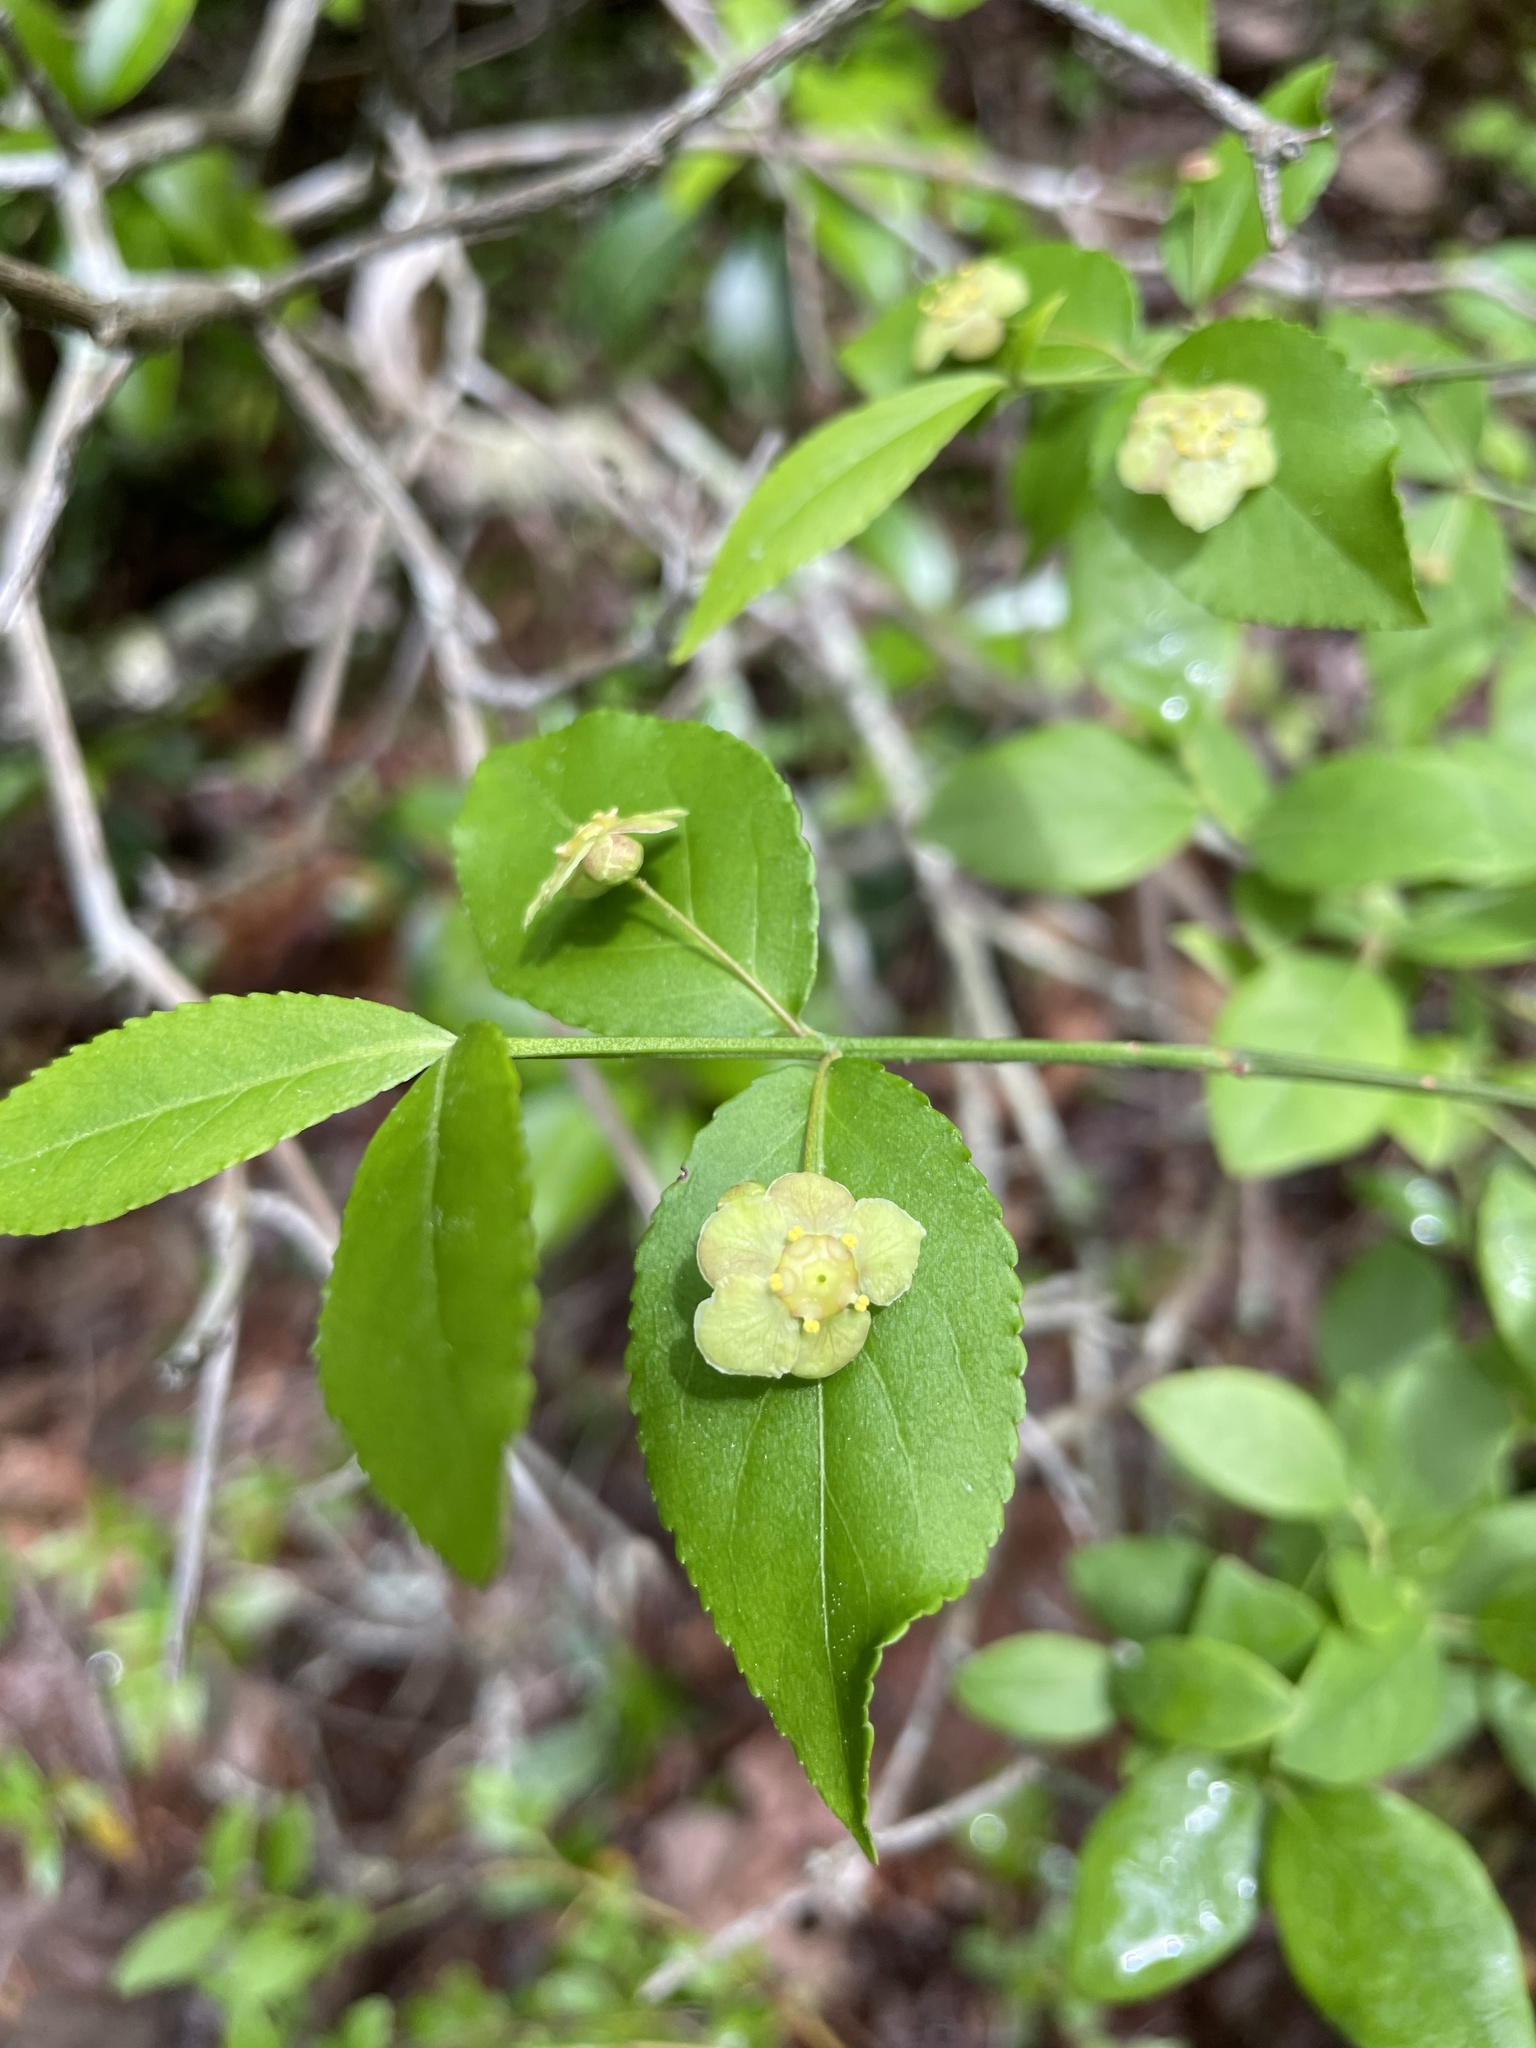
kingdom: Plantae
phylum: Tracheophyta
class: Magnoliopsida
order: Celastrales
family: Celastraceae
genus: Euonymus
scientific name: Euonymus americanus
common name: Bursting-heart
